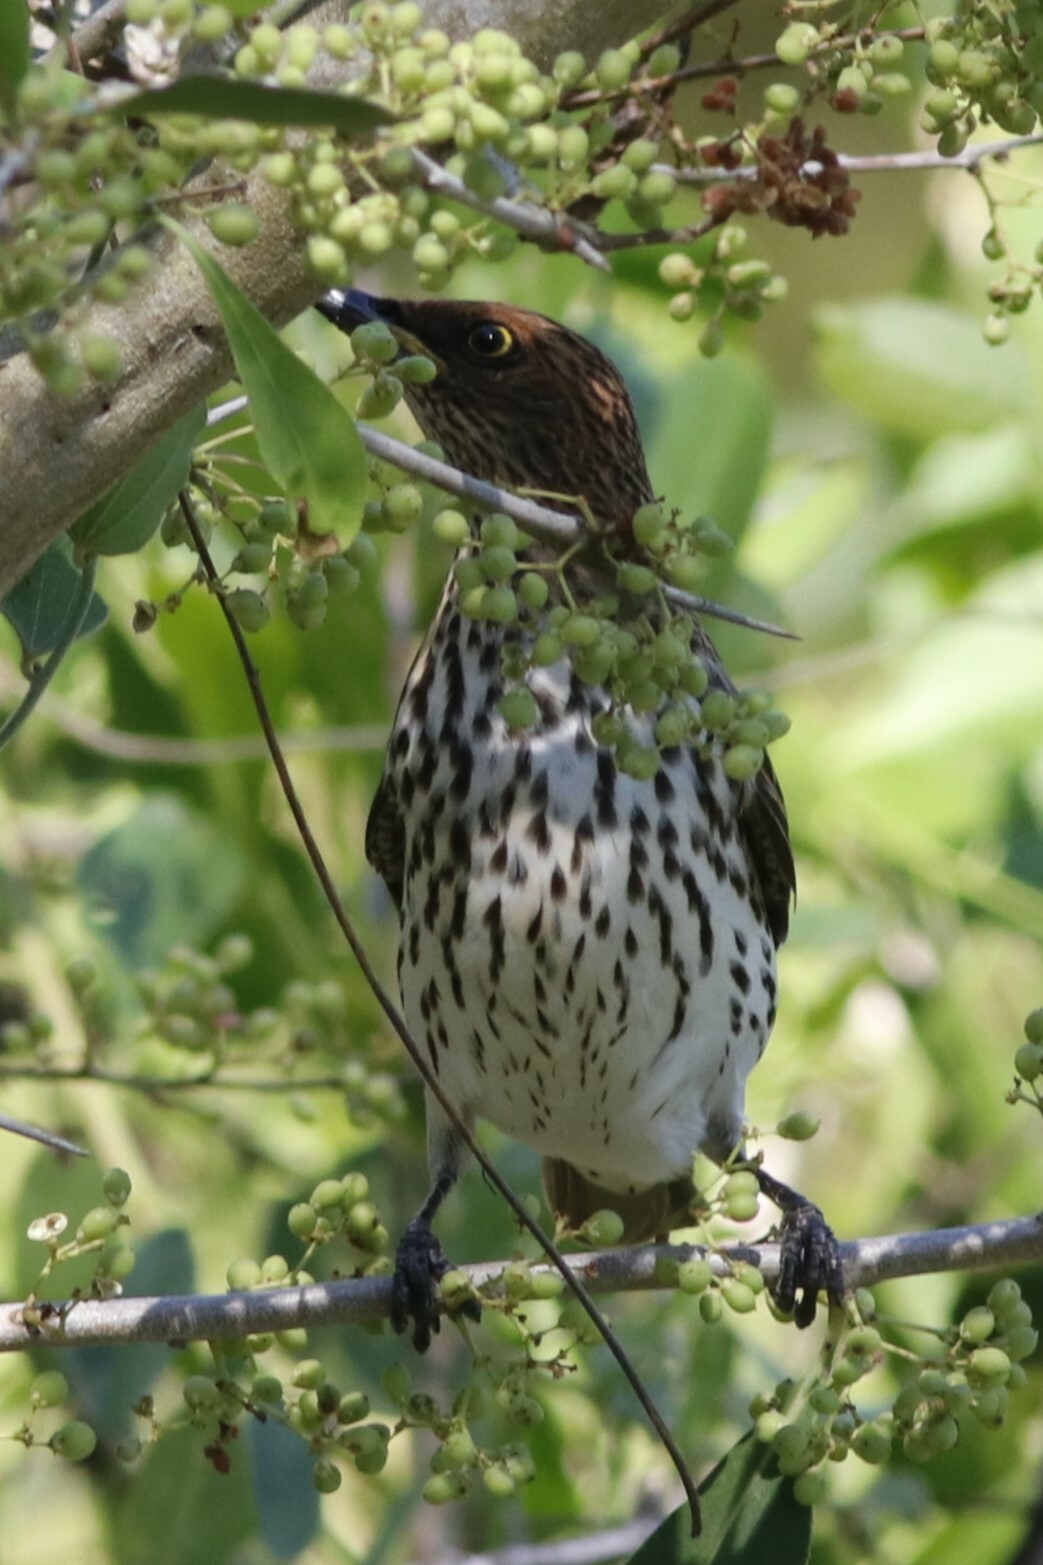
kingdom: Animalia
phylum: Chordata
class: Aves
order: Passeriformes
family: Sturnidae
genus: Cinnyricinclus
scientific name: Cinnyricinclus leucogaster
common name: Violet-backed starling
